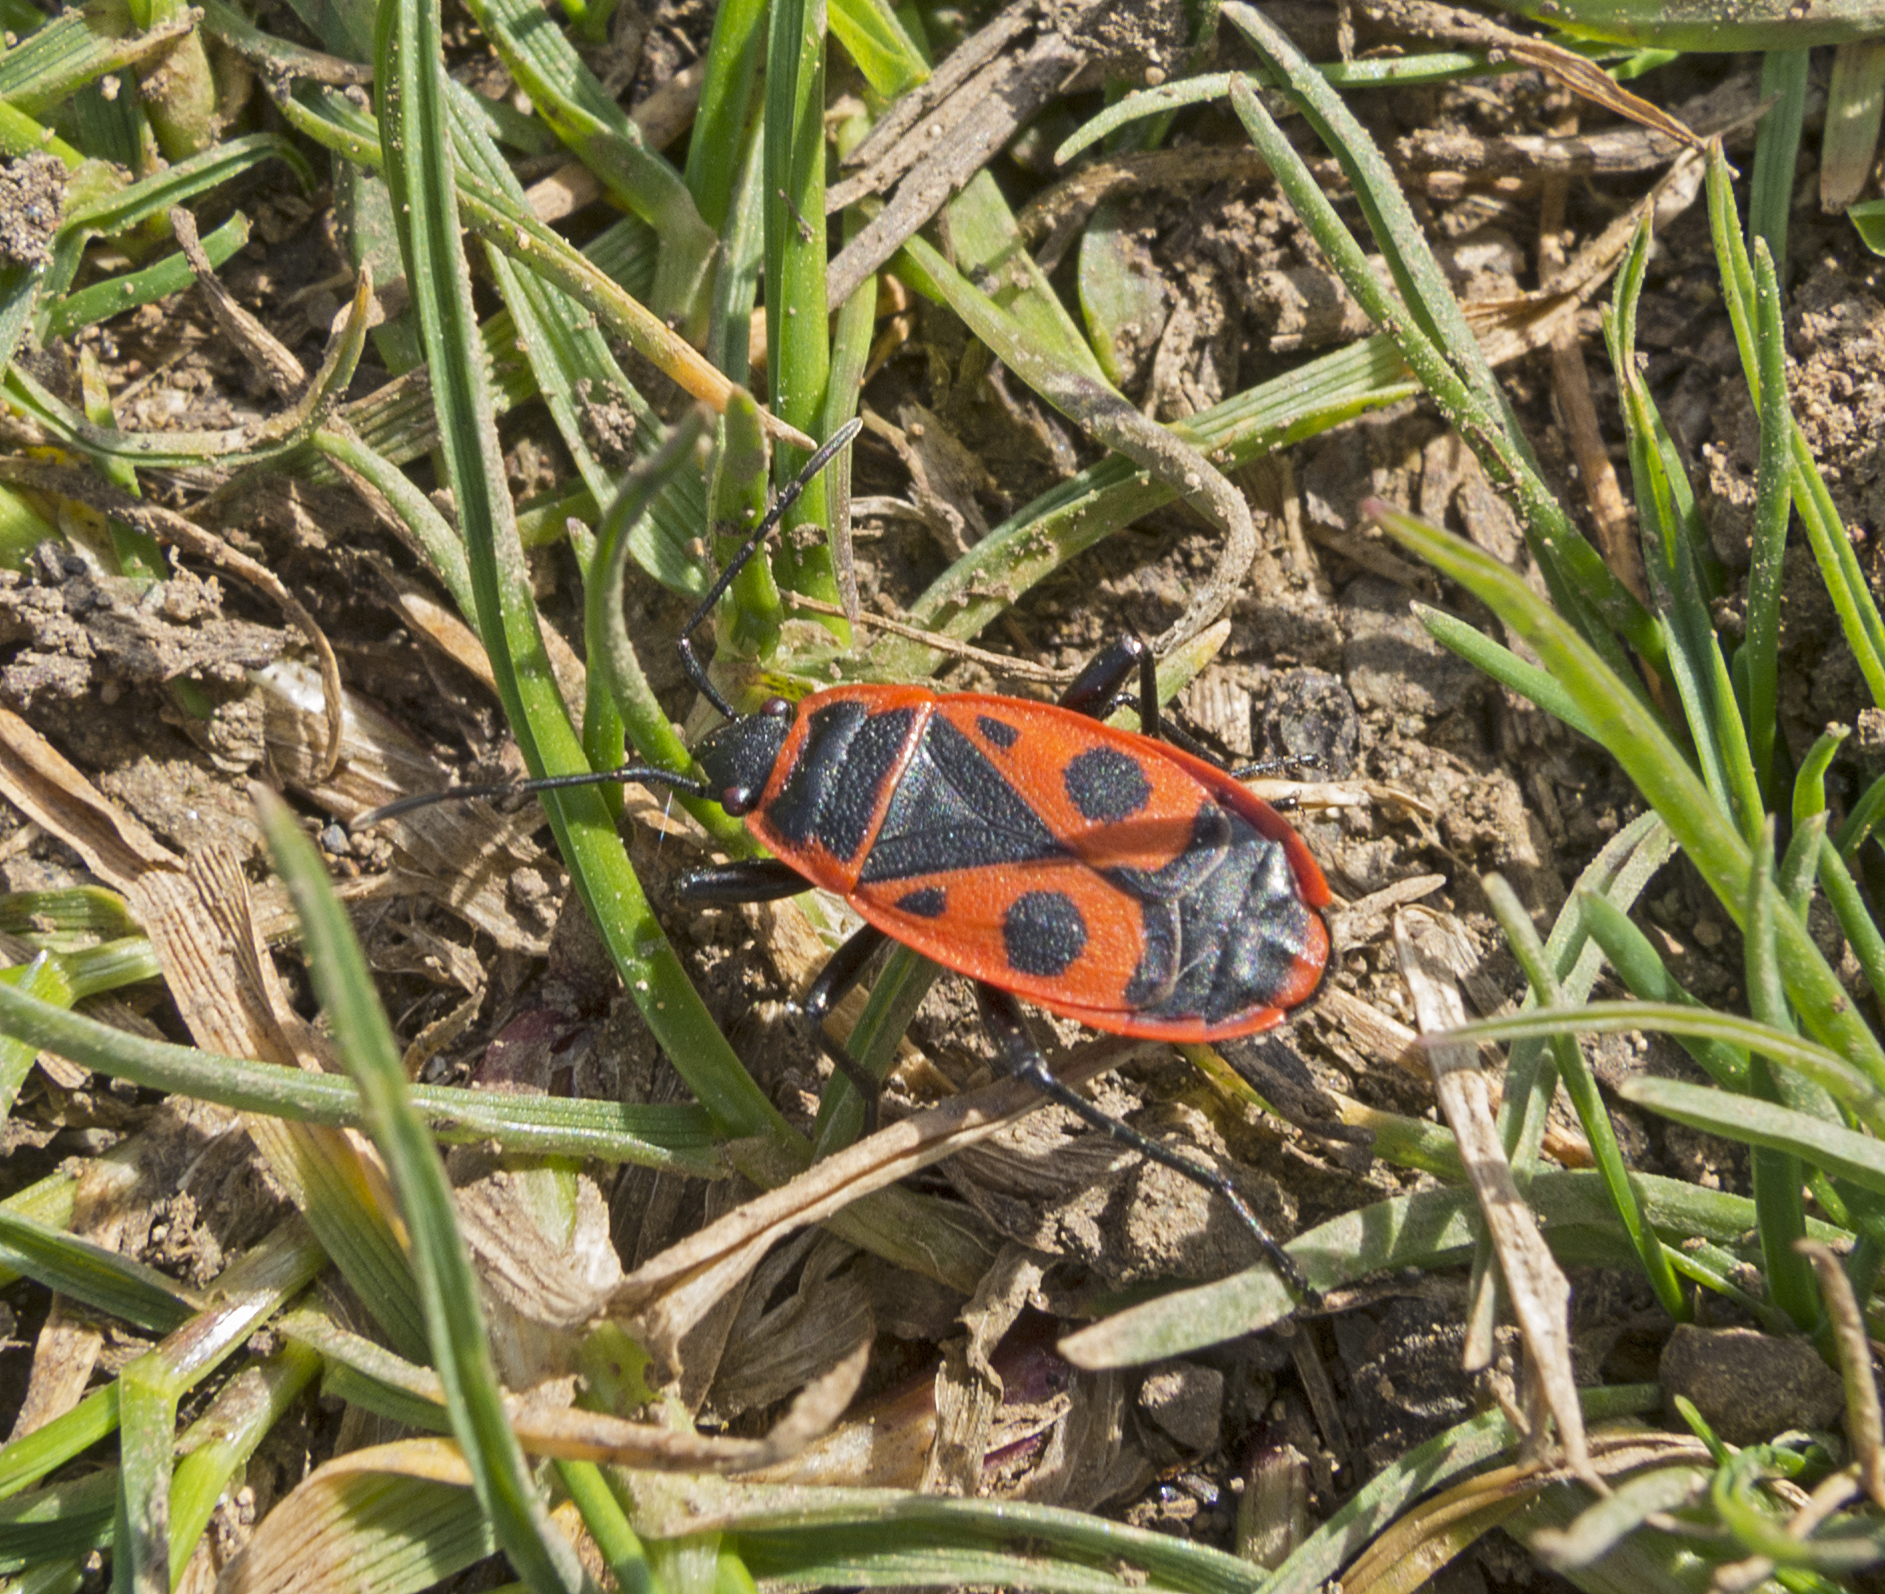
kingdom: Animalia
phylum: Arthropoda
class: Insecta
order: Hemiptera
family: Pyrrhocoridae
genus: Pyrrhocoris
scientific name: Pyrrhocoris apterus
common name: Firebug
